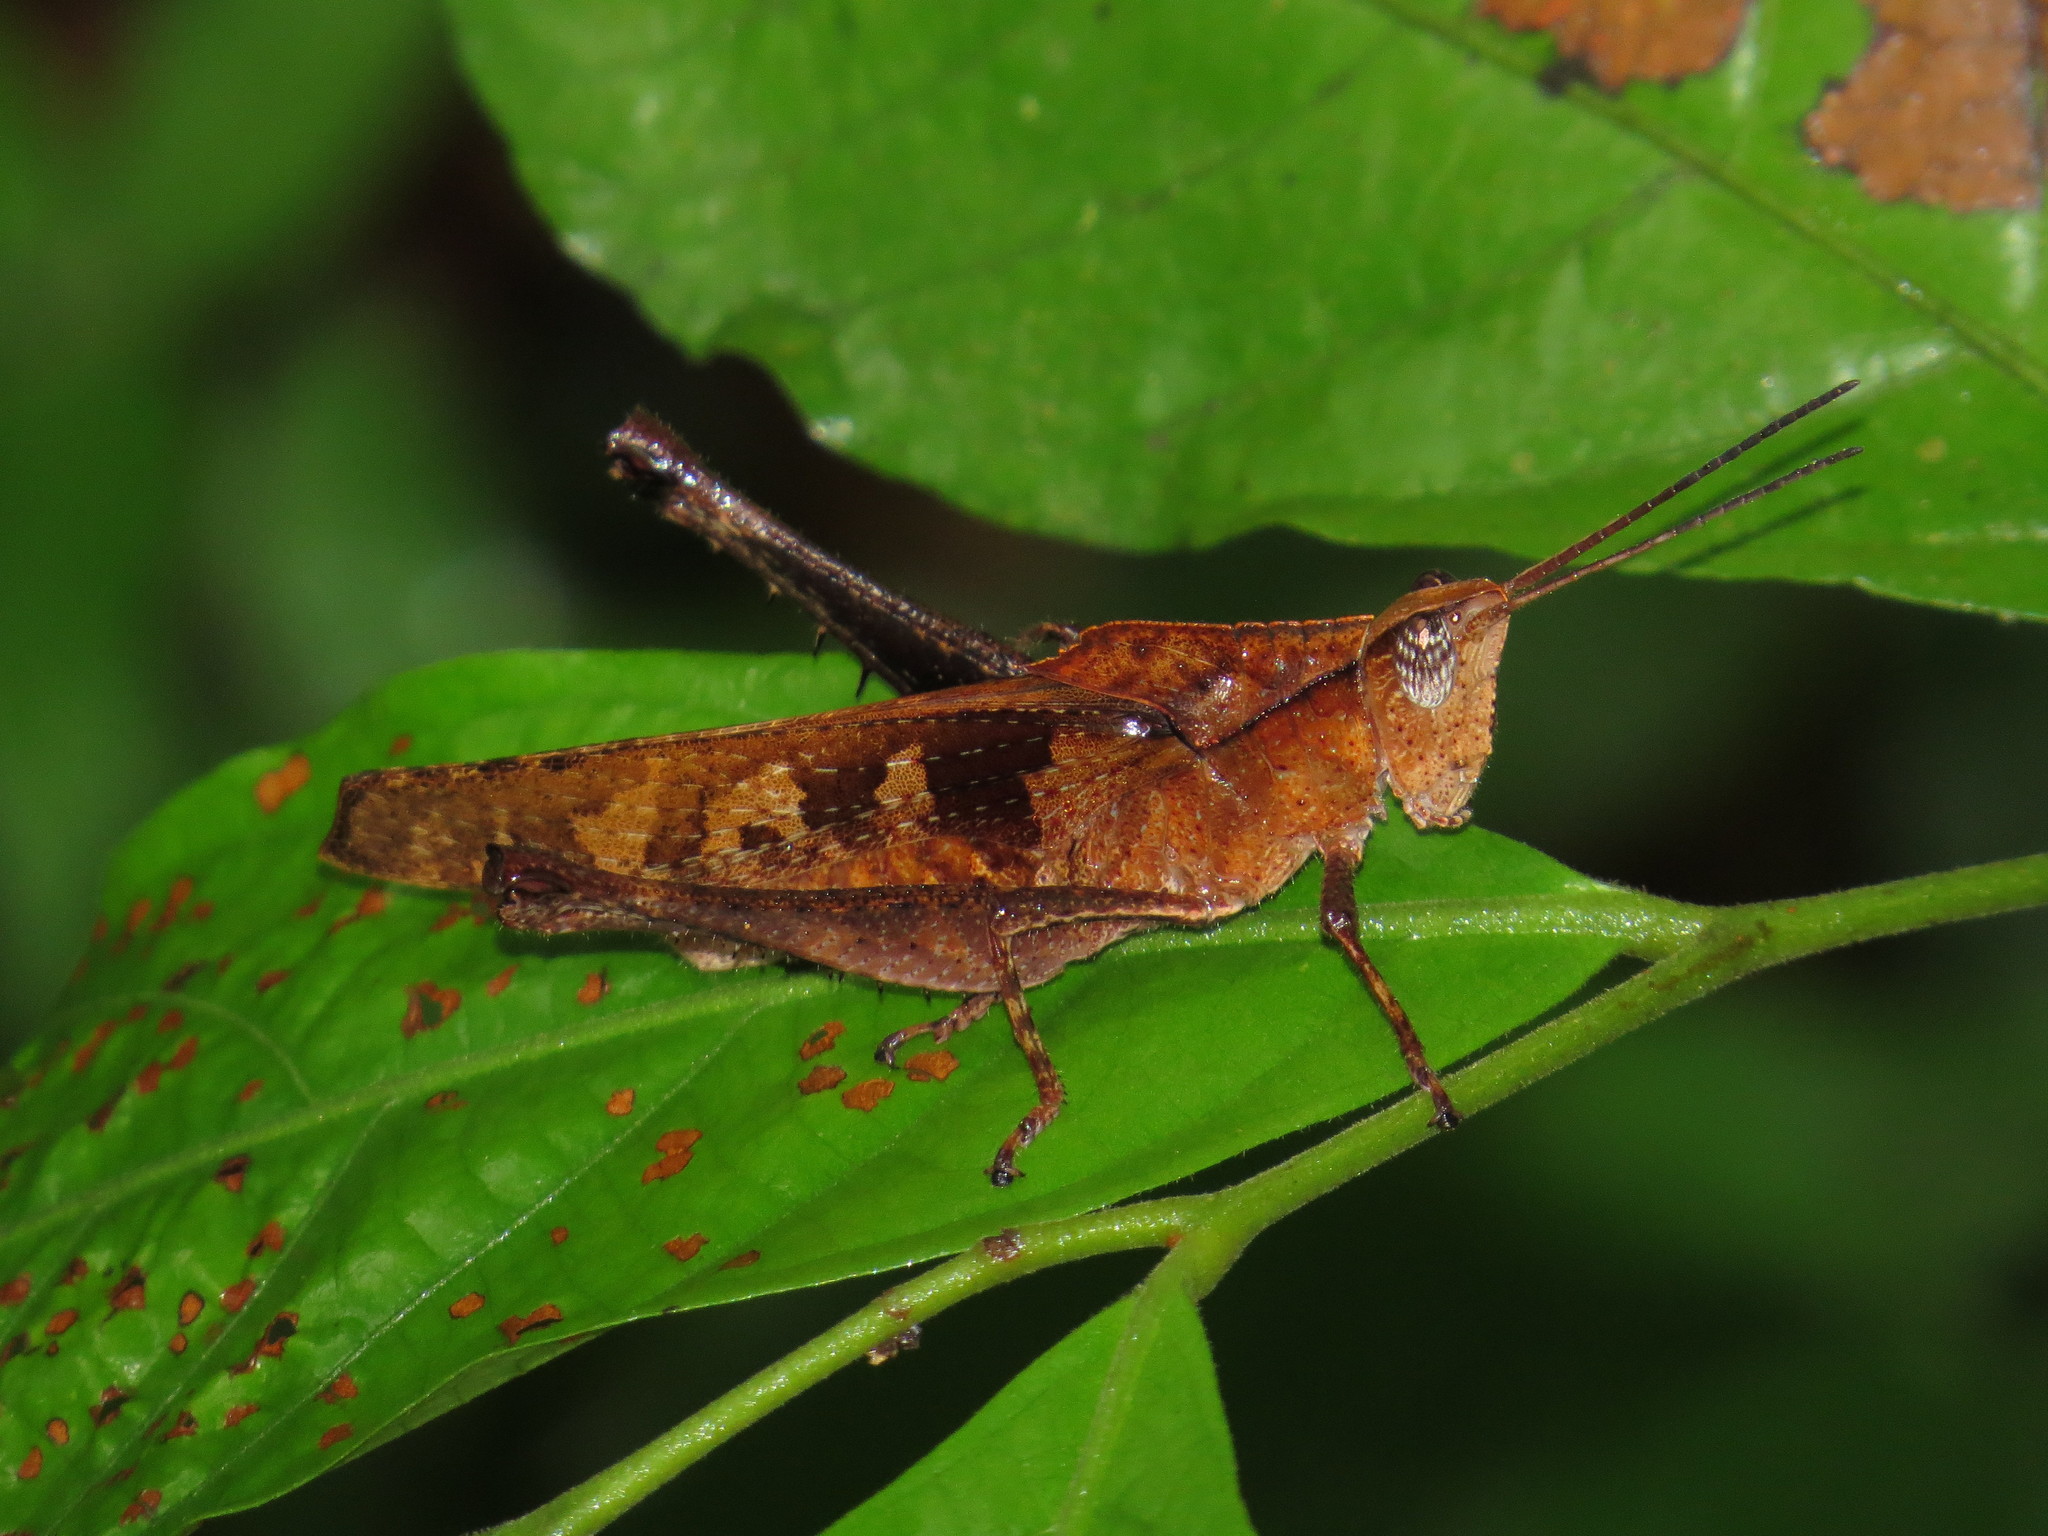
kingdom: Animalia
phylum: Arthropoda
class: Insecta
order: Orthoptera
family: Romaleidae
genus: Colpolopha
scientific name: Colpolopha obsoleta
